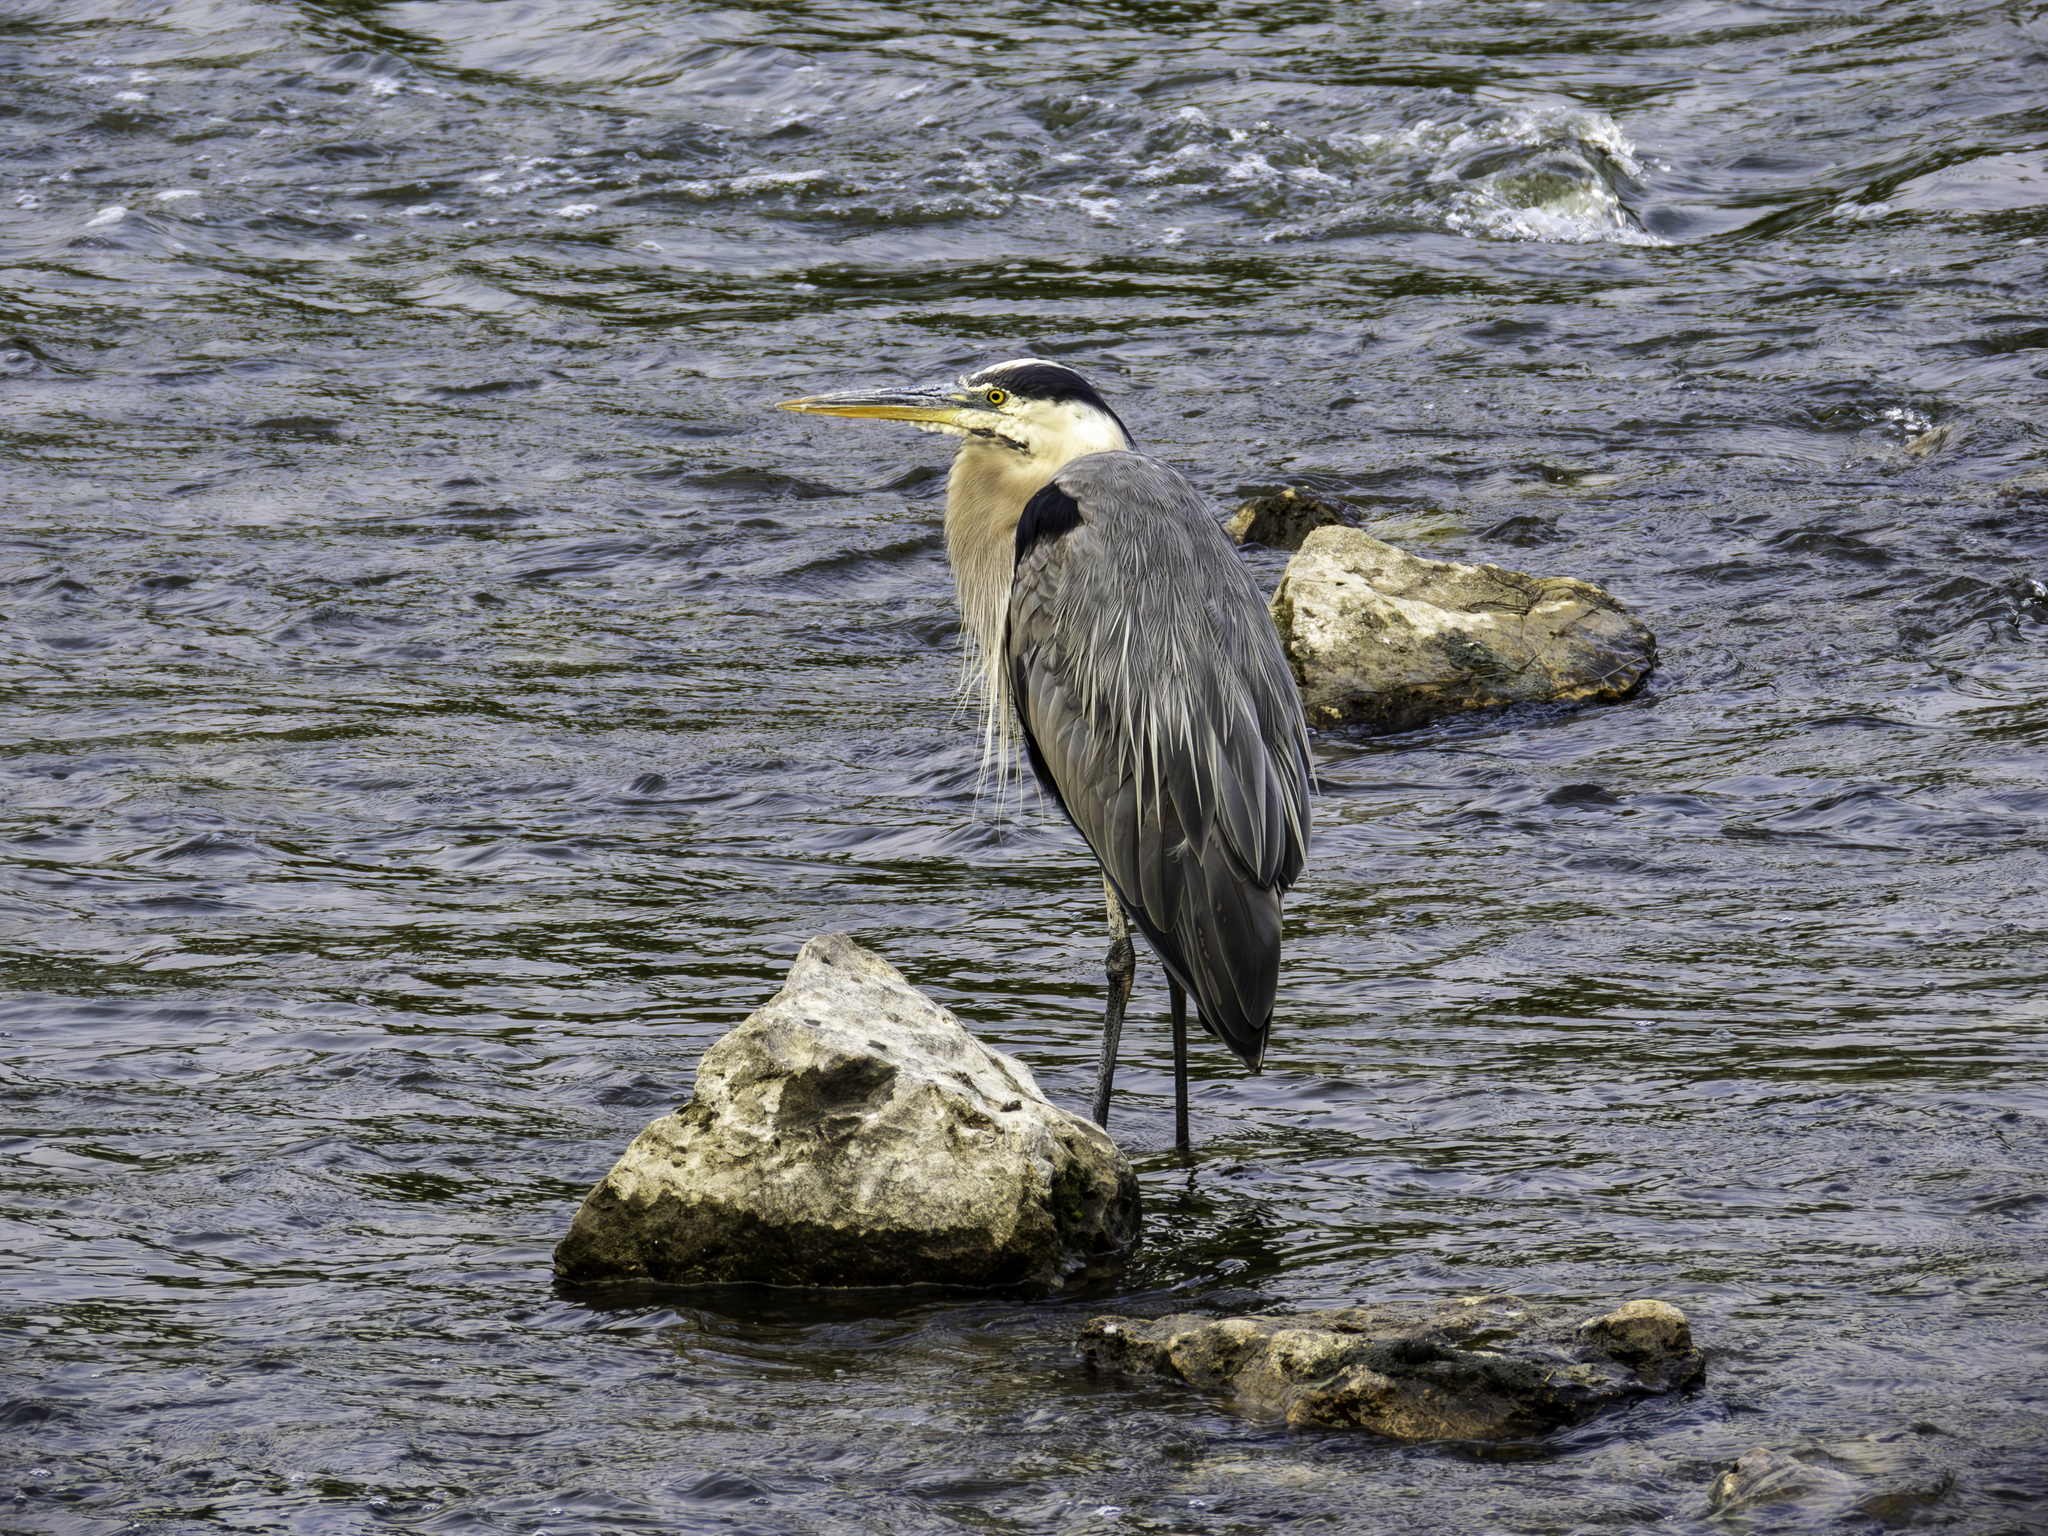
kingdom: Animalia
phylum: Chordata
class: Aves
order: Pelecaniformes
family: Ardeidae
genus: Ardea
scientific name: Ardea herodias
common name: Great blue heron
